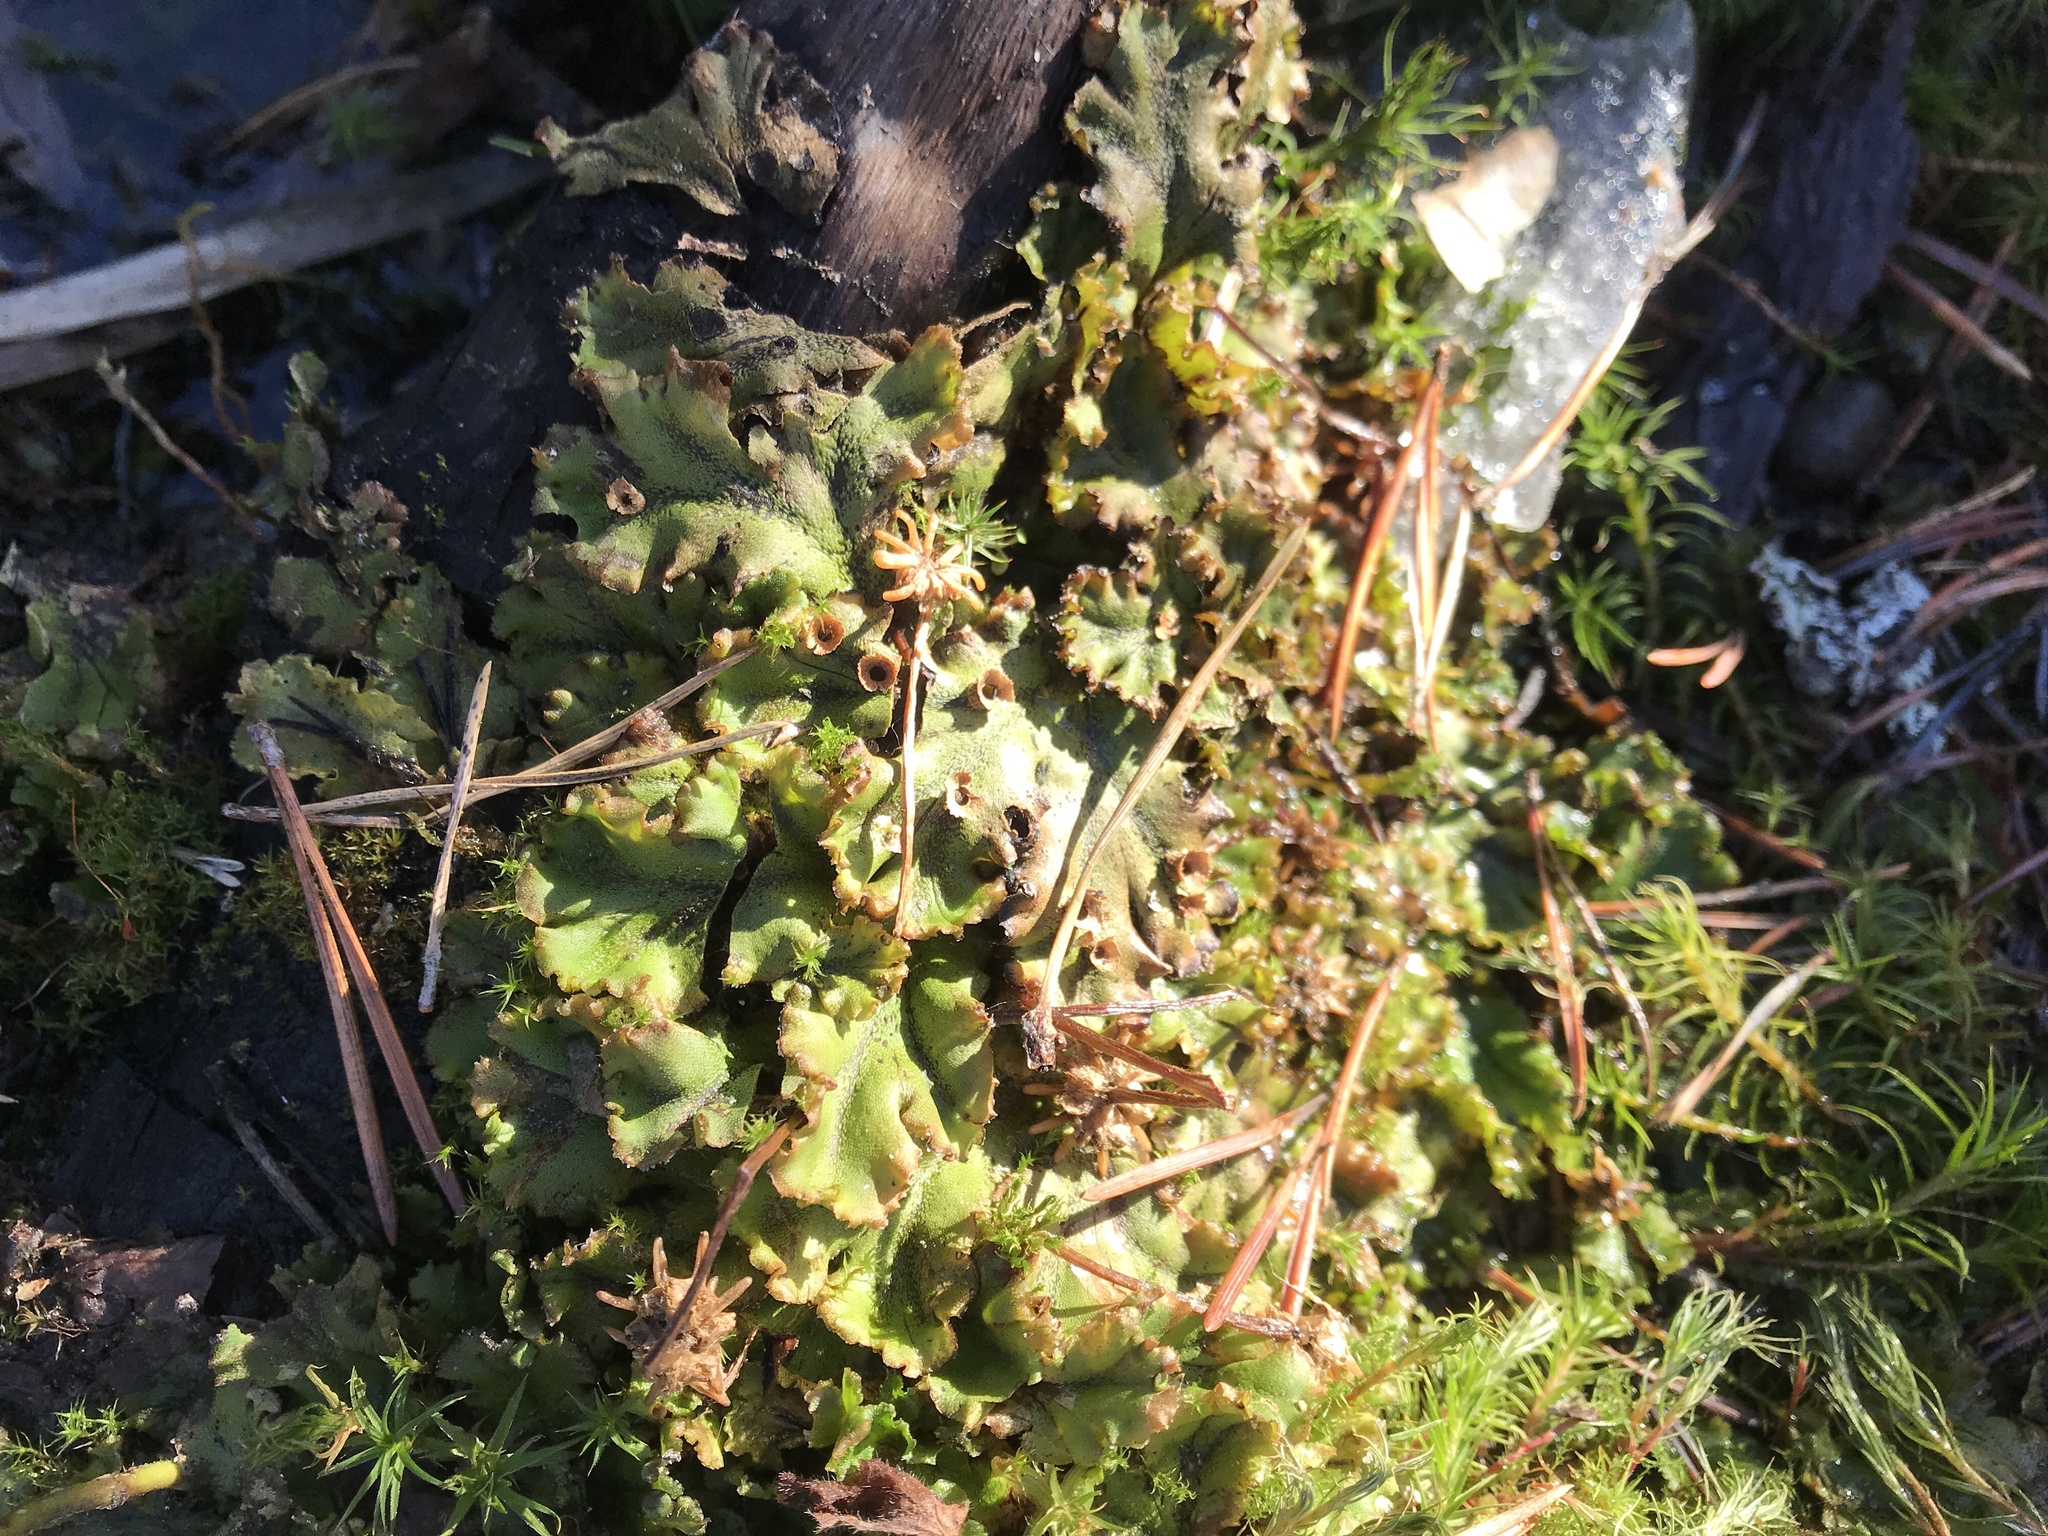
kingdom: Plantae
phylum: Marchantiophyta
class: Marchantiopsida
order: Marchantiales
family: Marchantiaceae
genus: Marchantia
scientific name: Marchantia polymorpha
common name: Common liverwort
